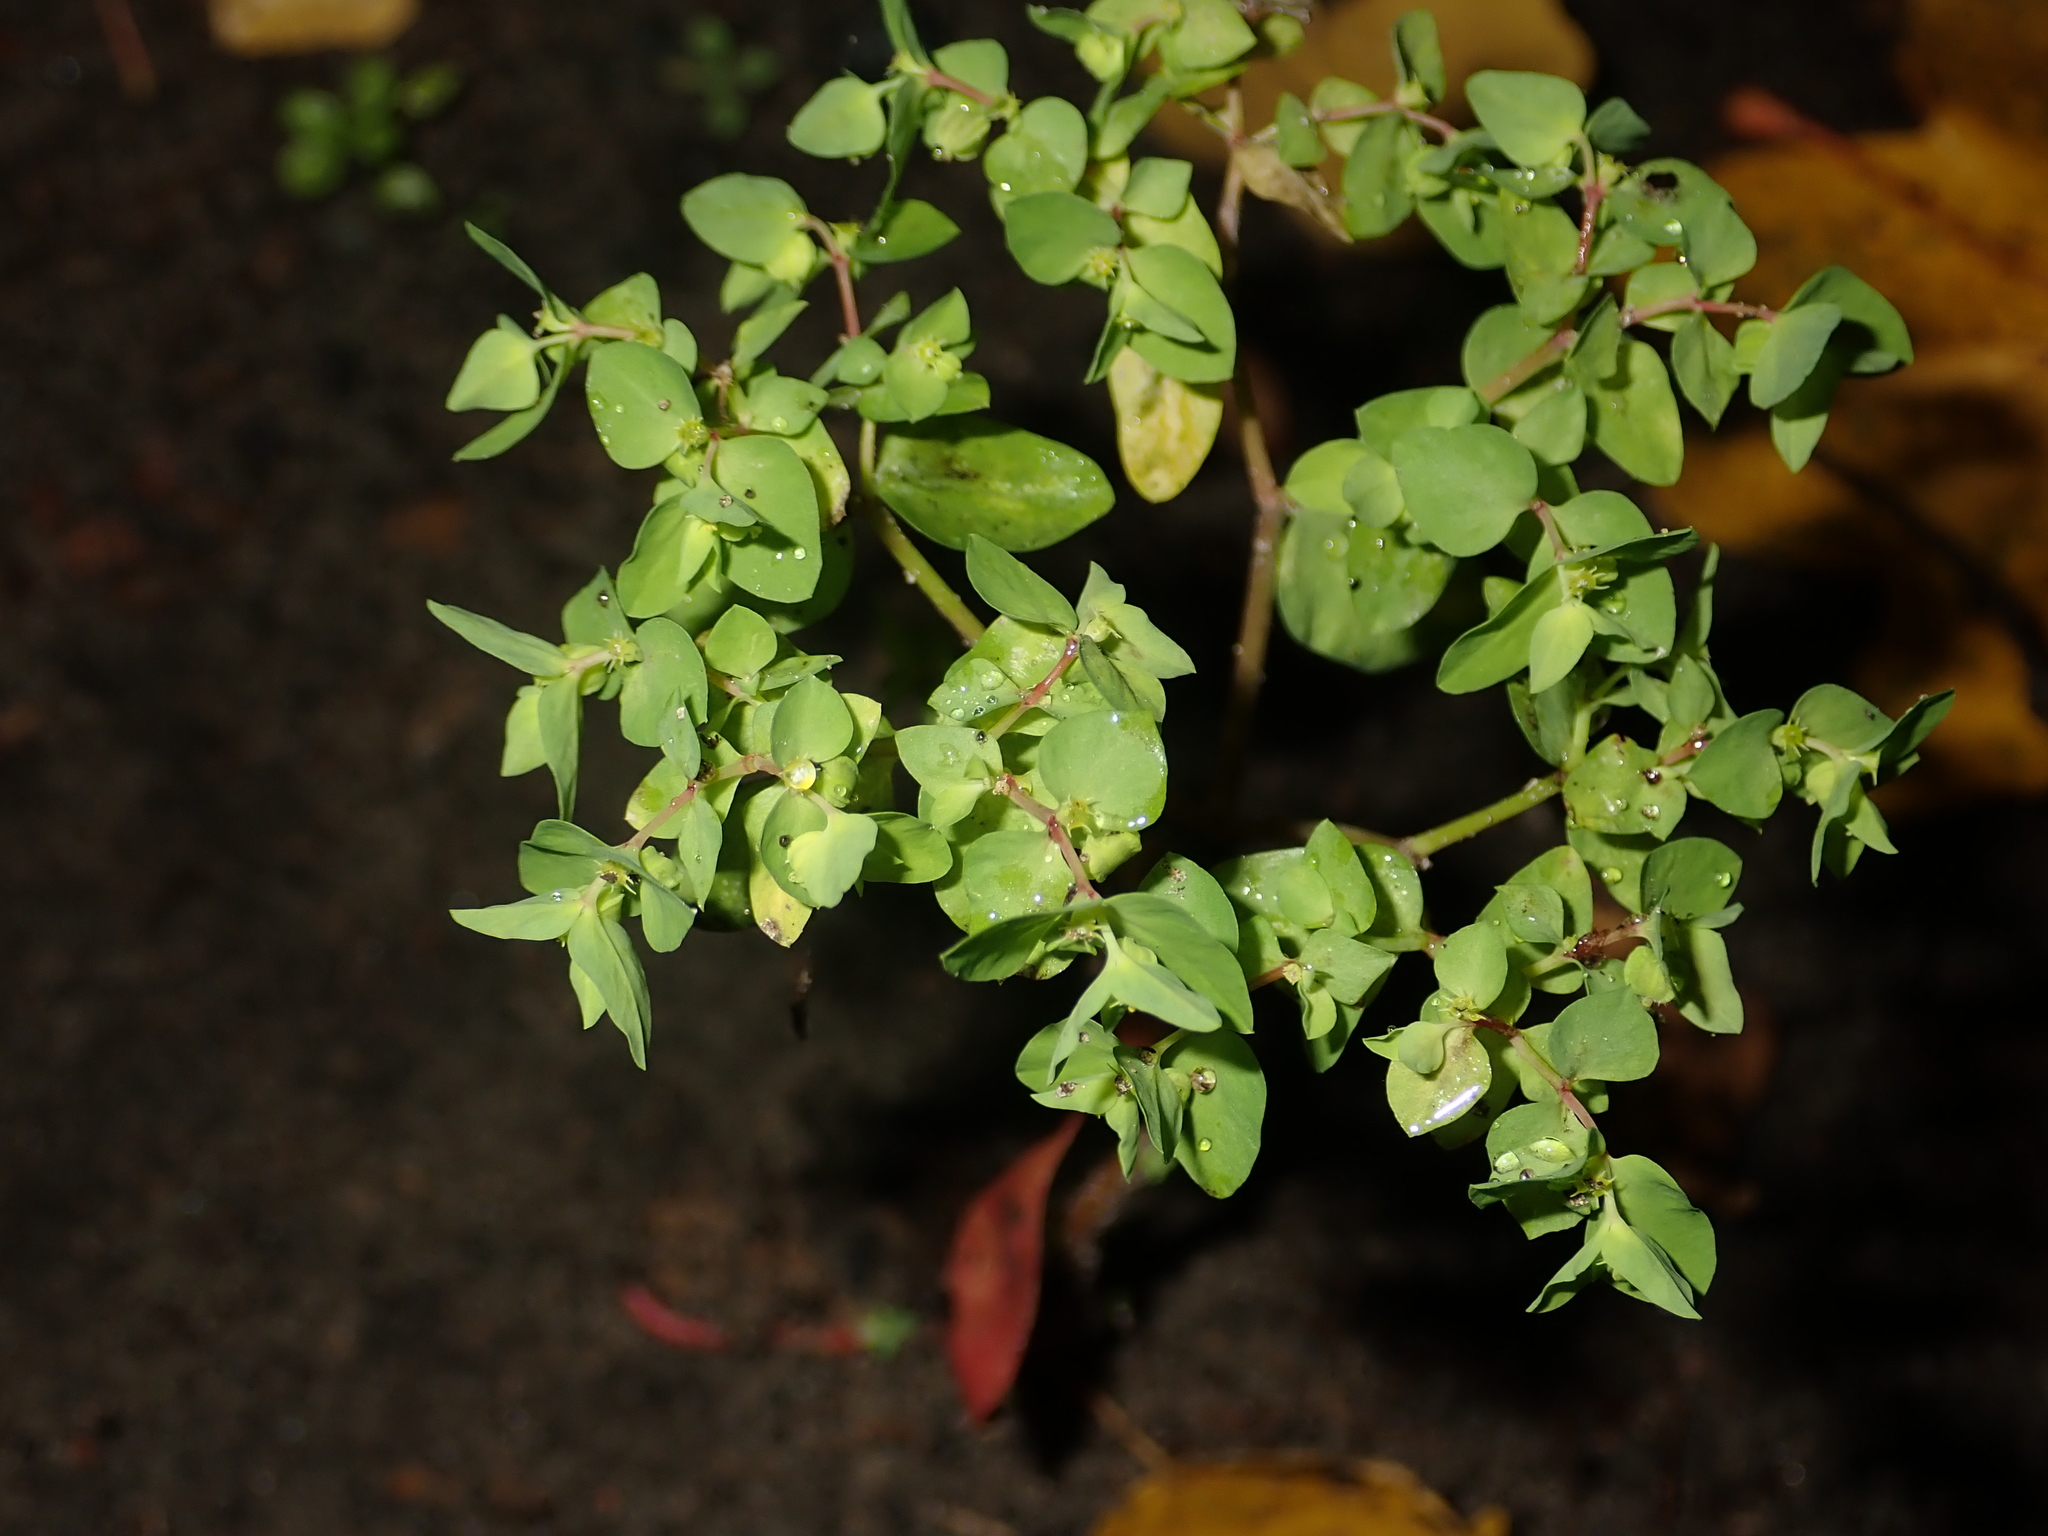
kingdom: Plantae
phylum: Tracheophyta
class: Magnoliopsida
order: Malpighiales
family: Euphorbiaceae
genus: Euphorbia
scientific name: Euphorbia peplus
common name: Petty spurge
